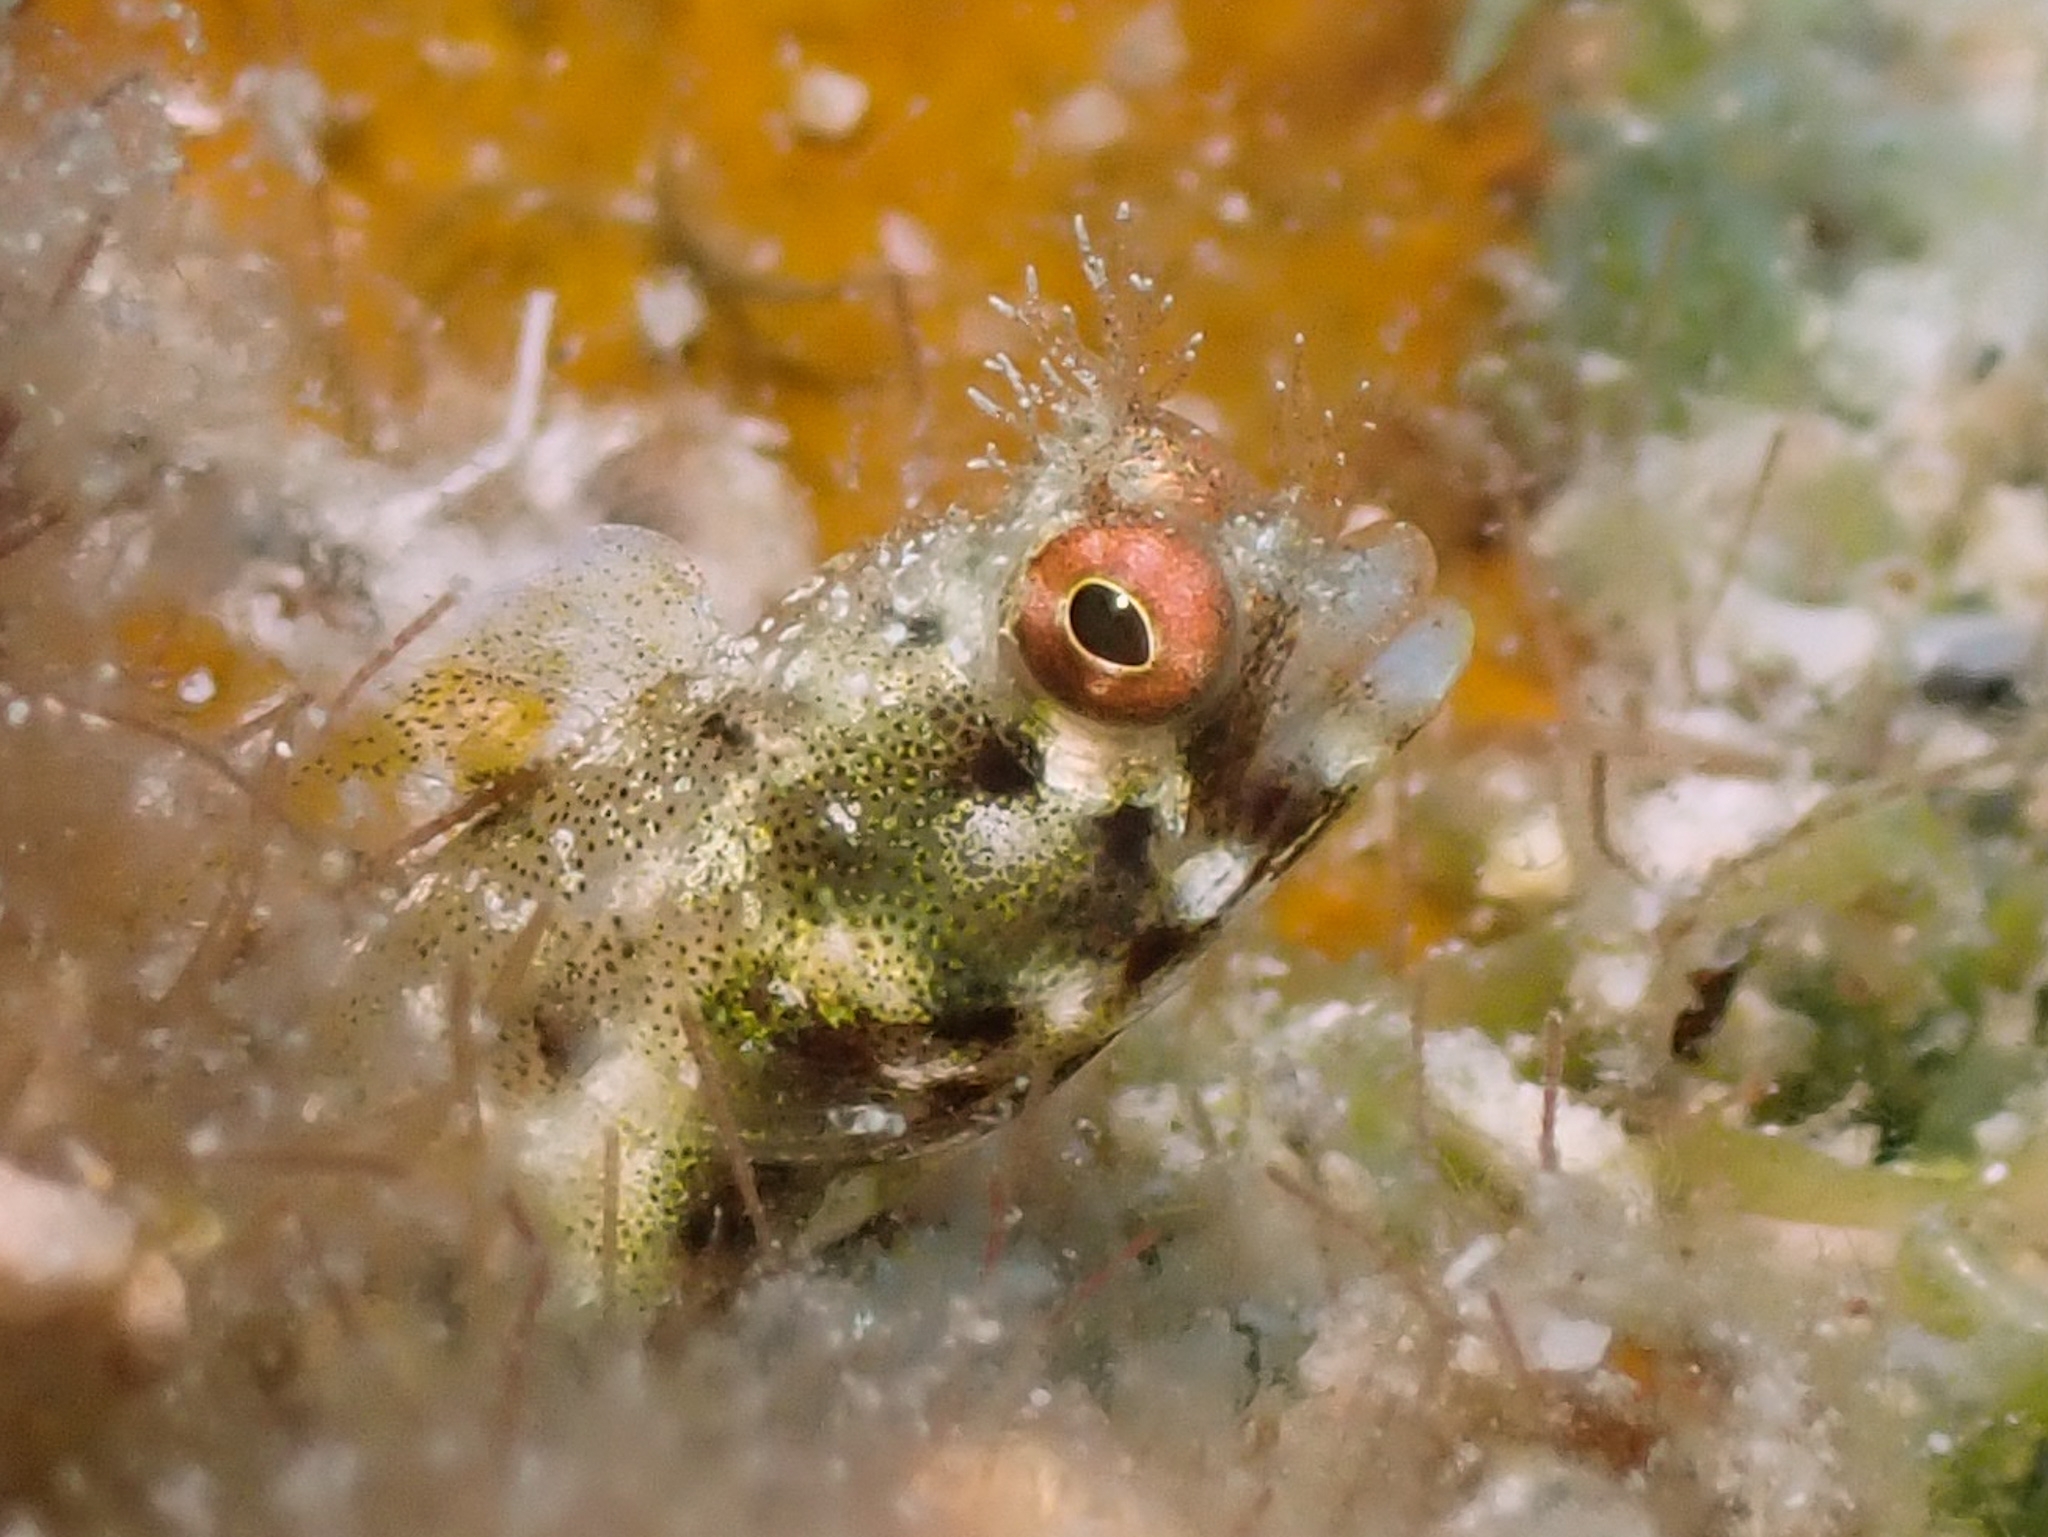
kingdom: Animalia
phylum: Chordata
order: Perciformes
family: Chaenopsidae
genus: Acanthemblemaria
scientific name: Acanthemblemaria aspera
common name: Roughhead blenny
